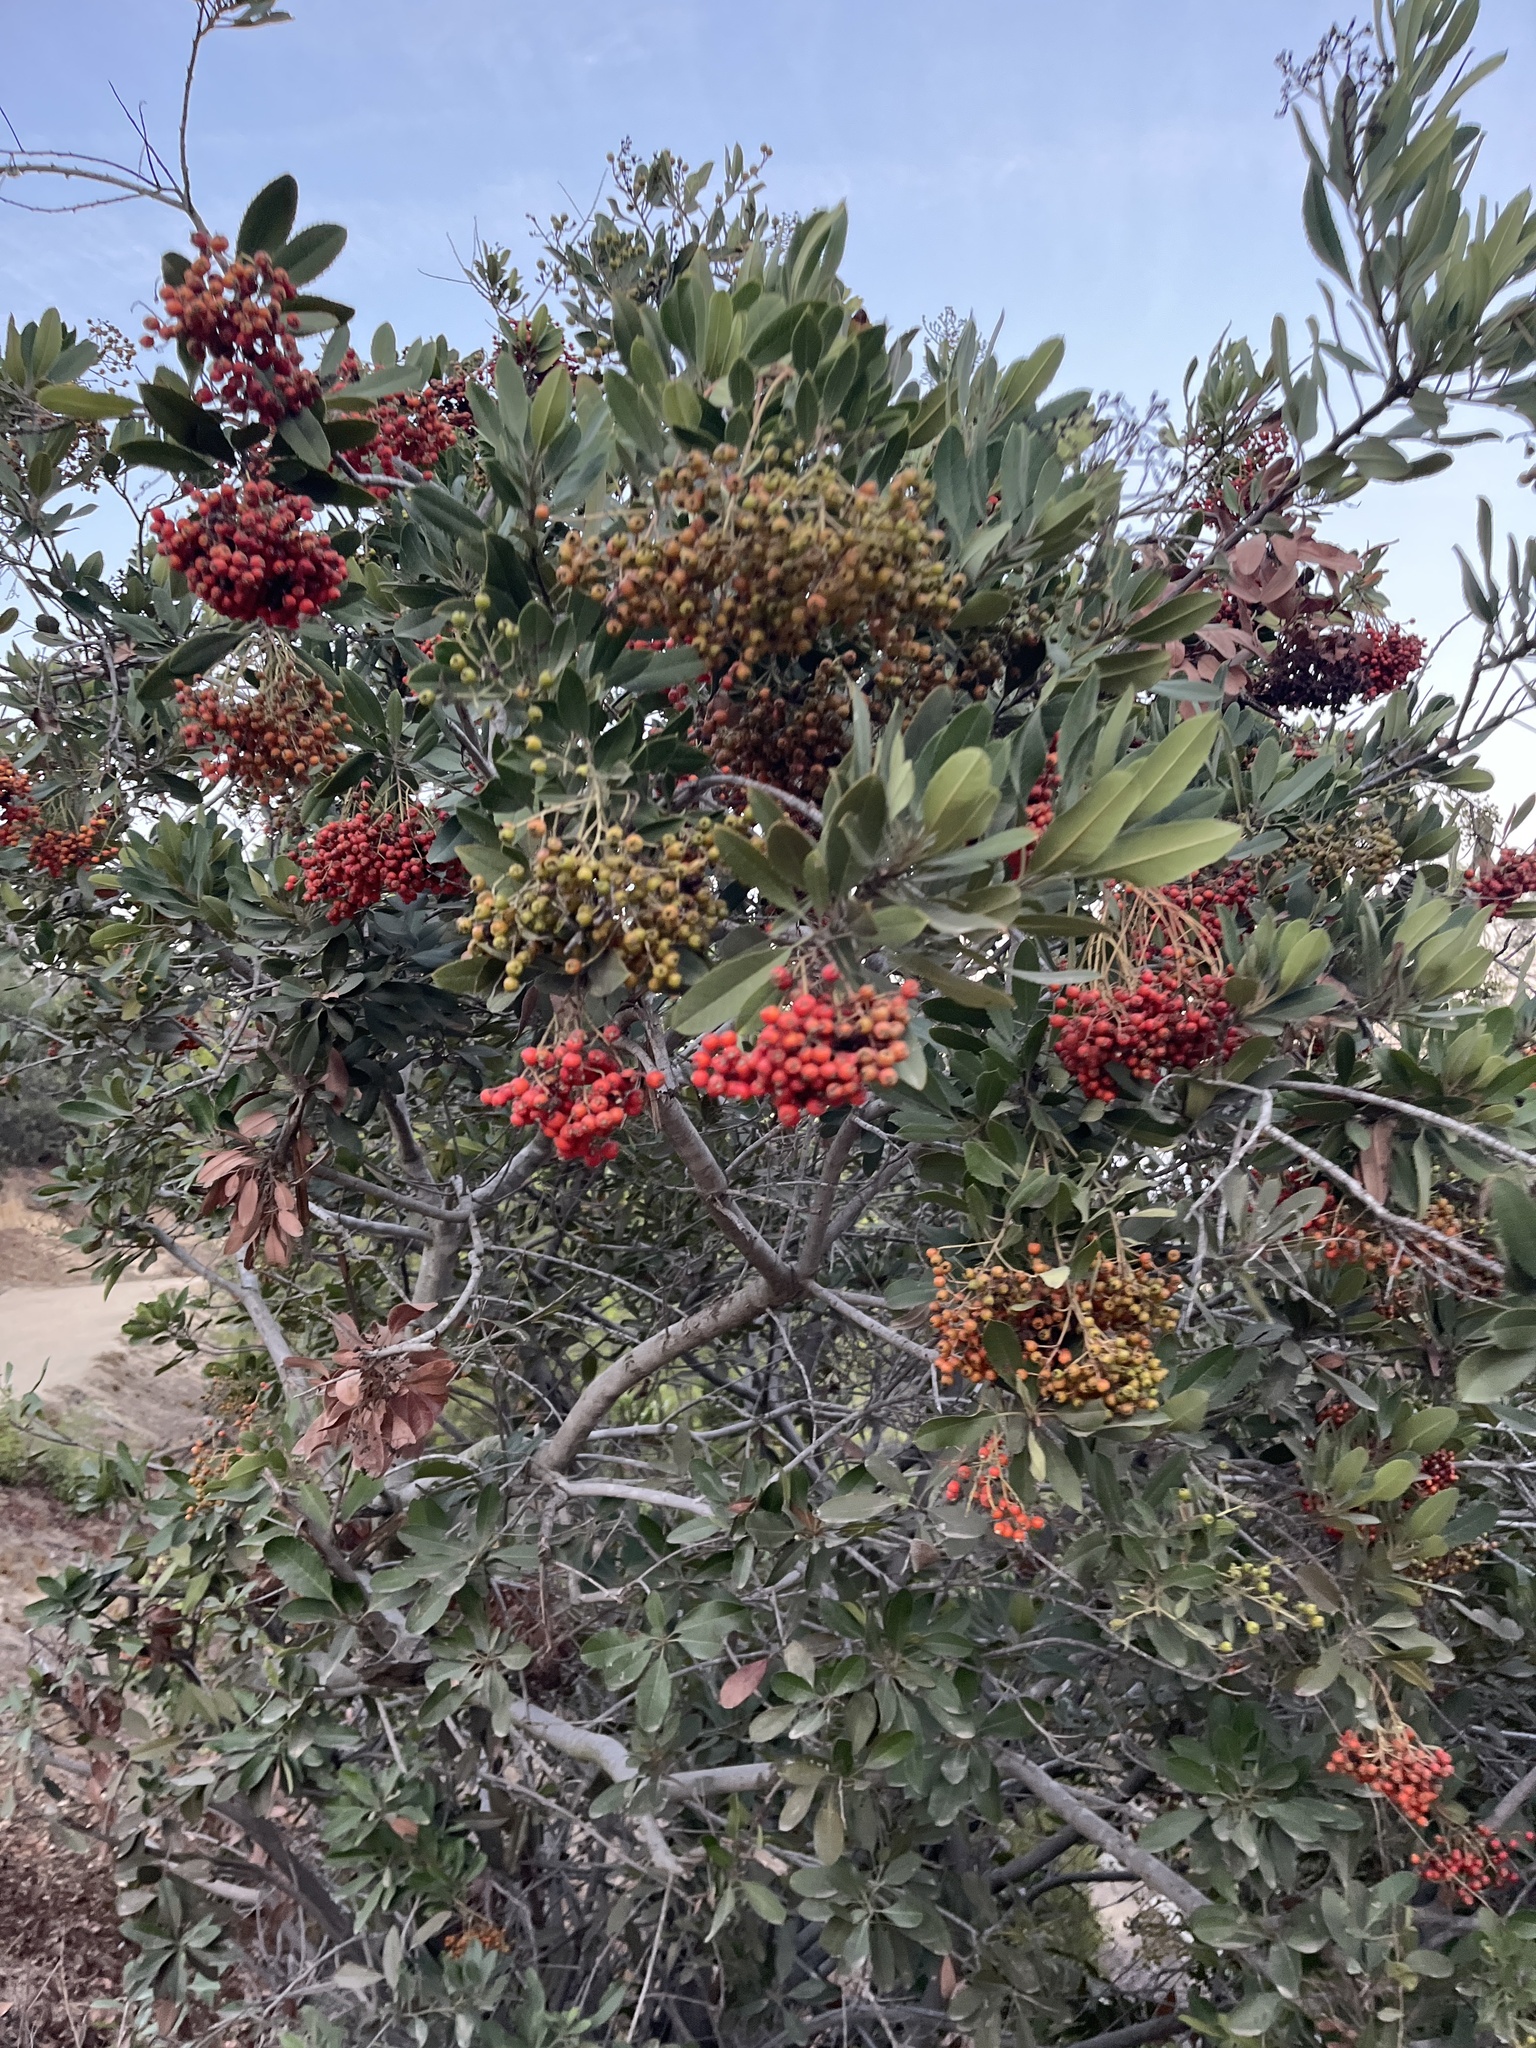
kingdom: Plantae
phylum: Tracheophyta
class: Magnoliopsida
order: Rosales
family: Rosaceae
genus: Heteromeles
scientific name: Heteromeles arbutifolia
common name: California-holly
